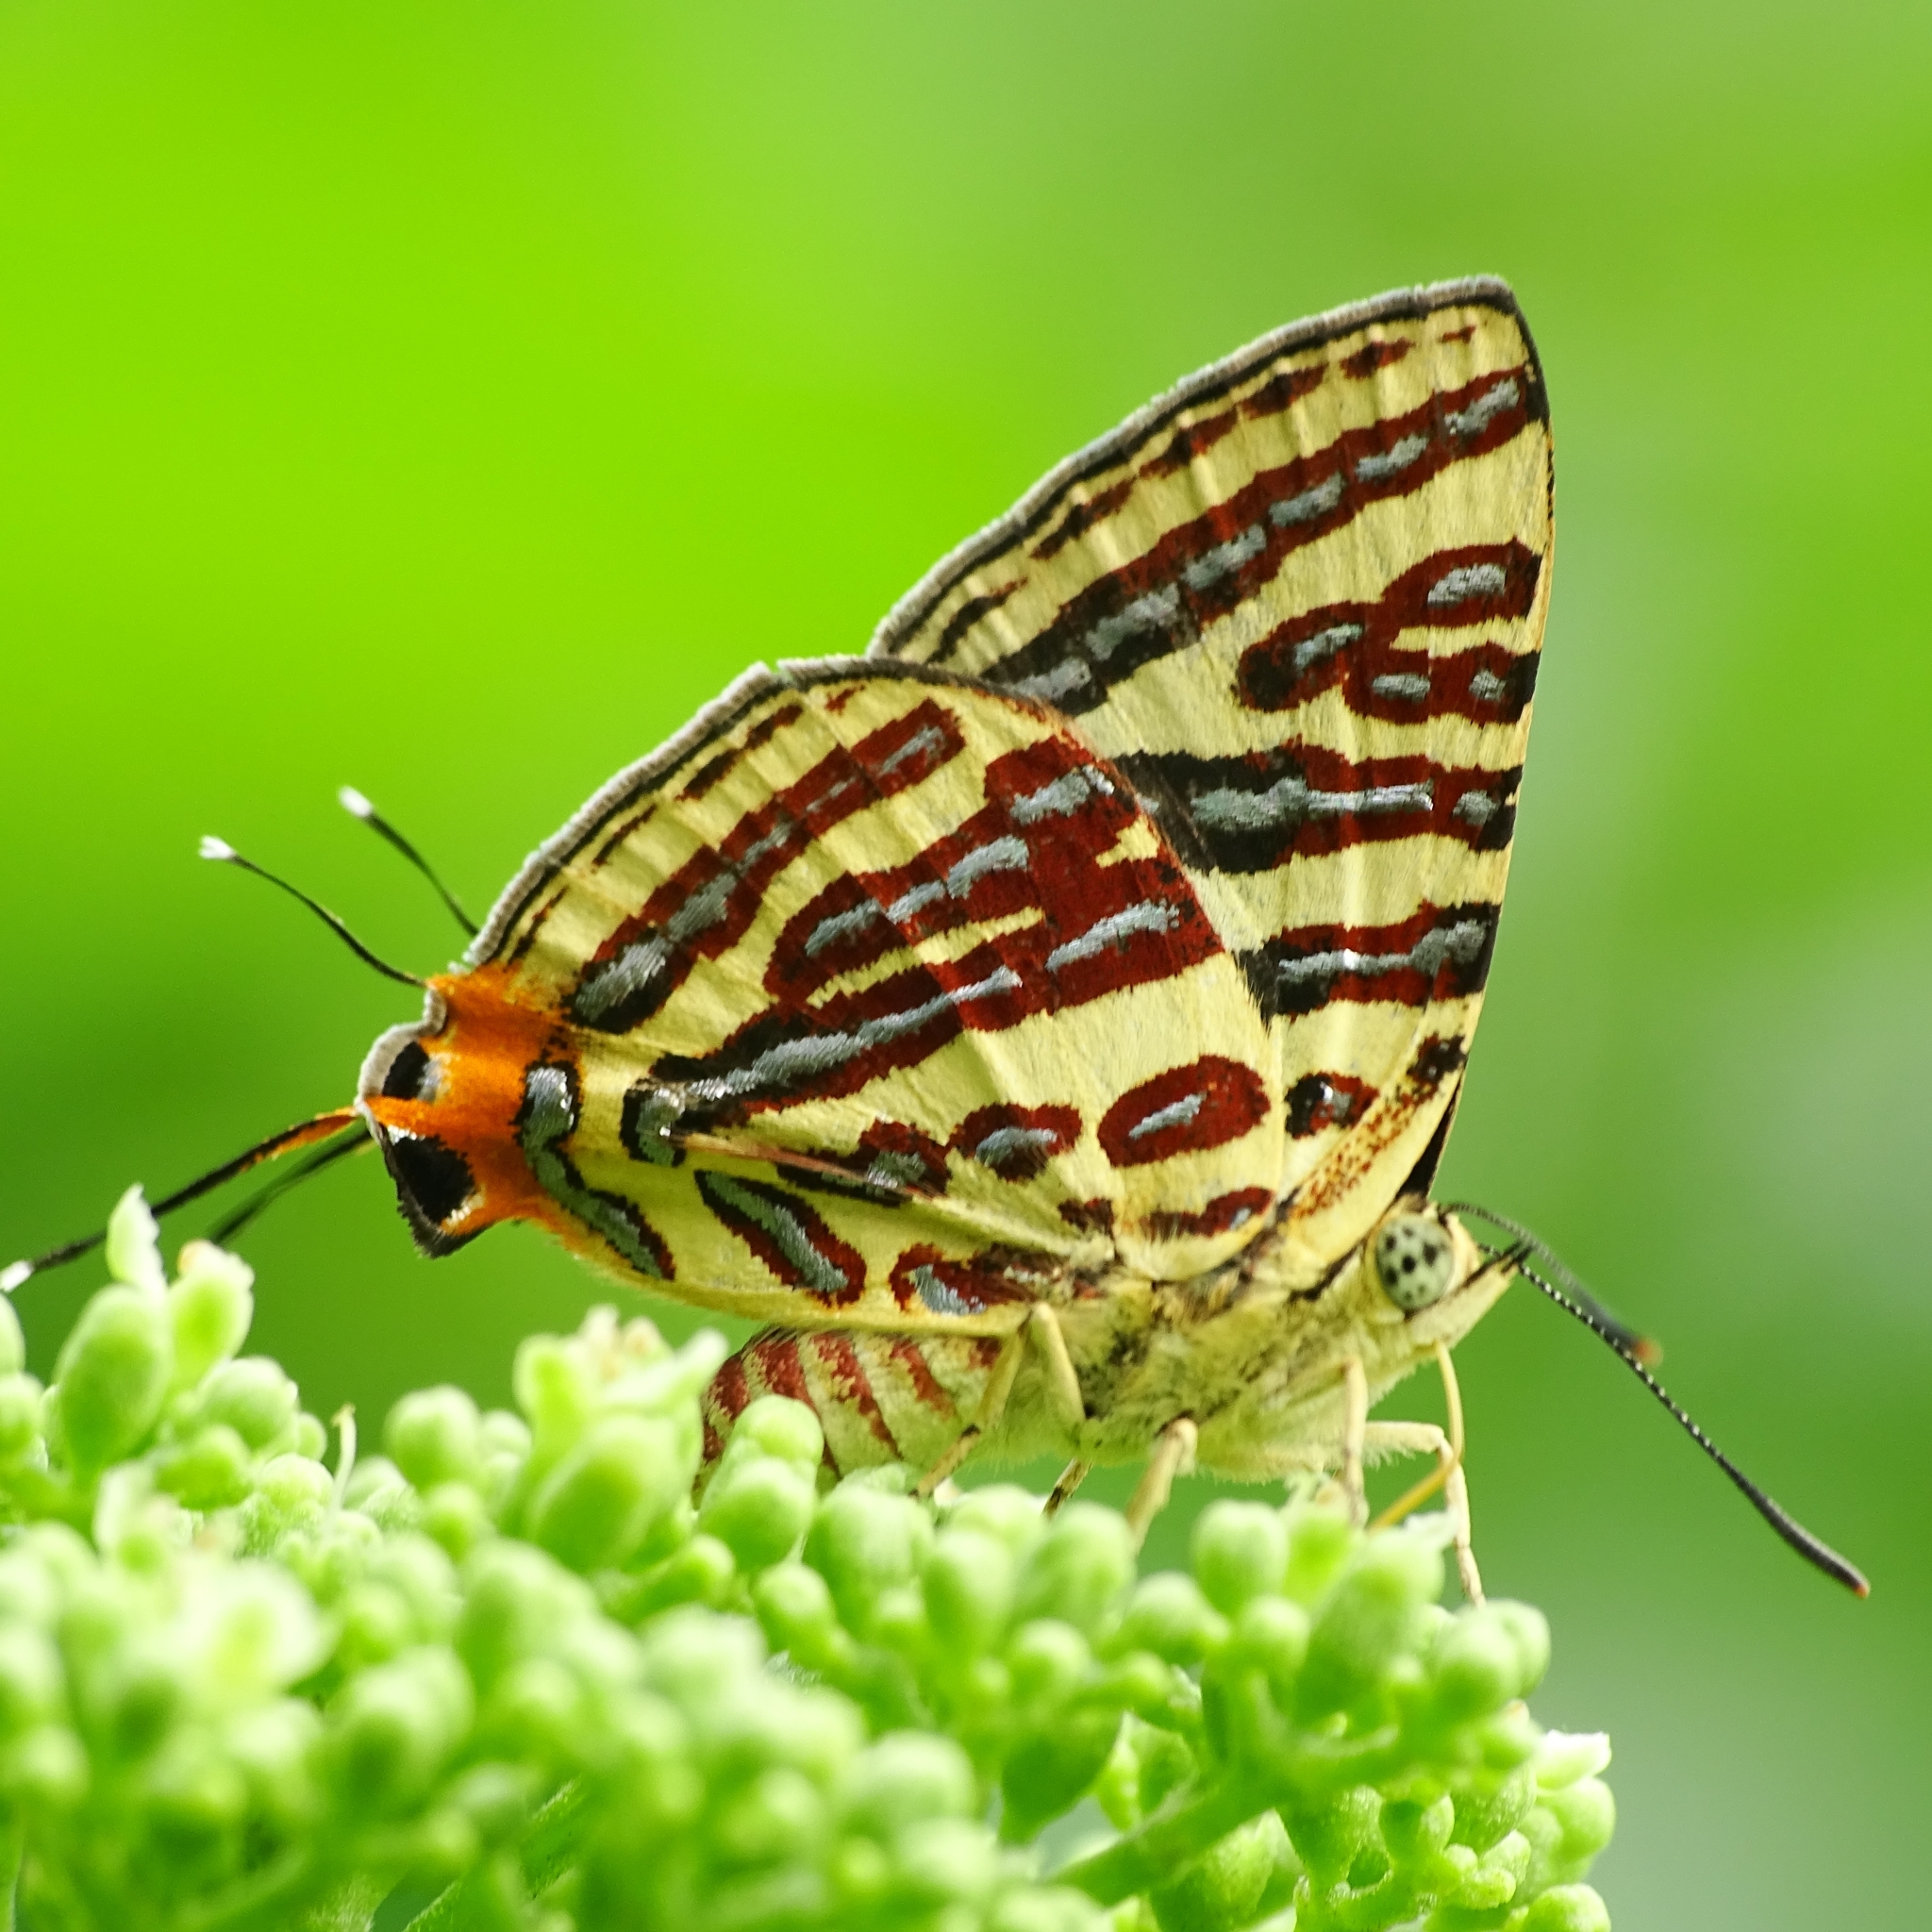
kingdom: Animalia
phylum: Arthropoda
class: Insecta
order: Lepidoptera
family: Lycaenidae
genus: Cigaritis
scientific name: Cigaritis lohita
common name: Long-banded silverline
